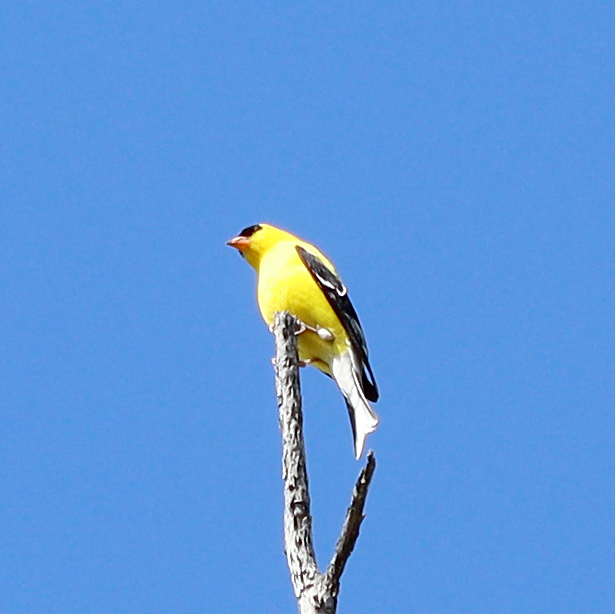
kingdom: Animalia
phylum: Chordata
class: Aves
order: Passeriformes
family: Fringillidae
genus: Spinus
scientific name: Spinus tristis
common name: American goldfinch
